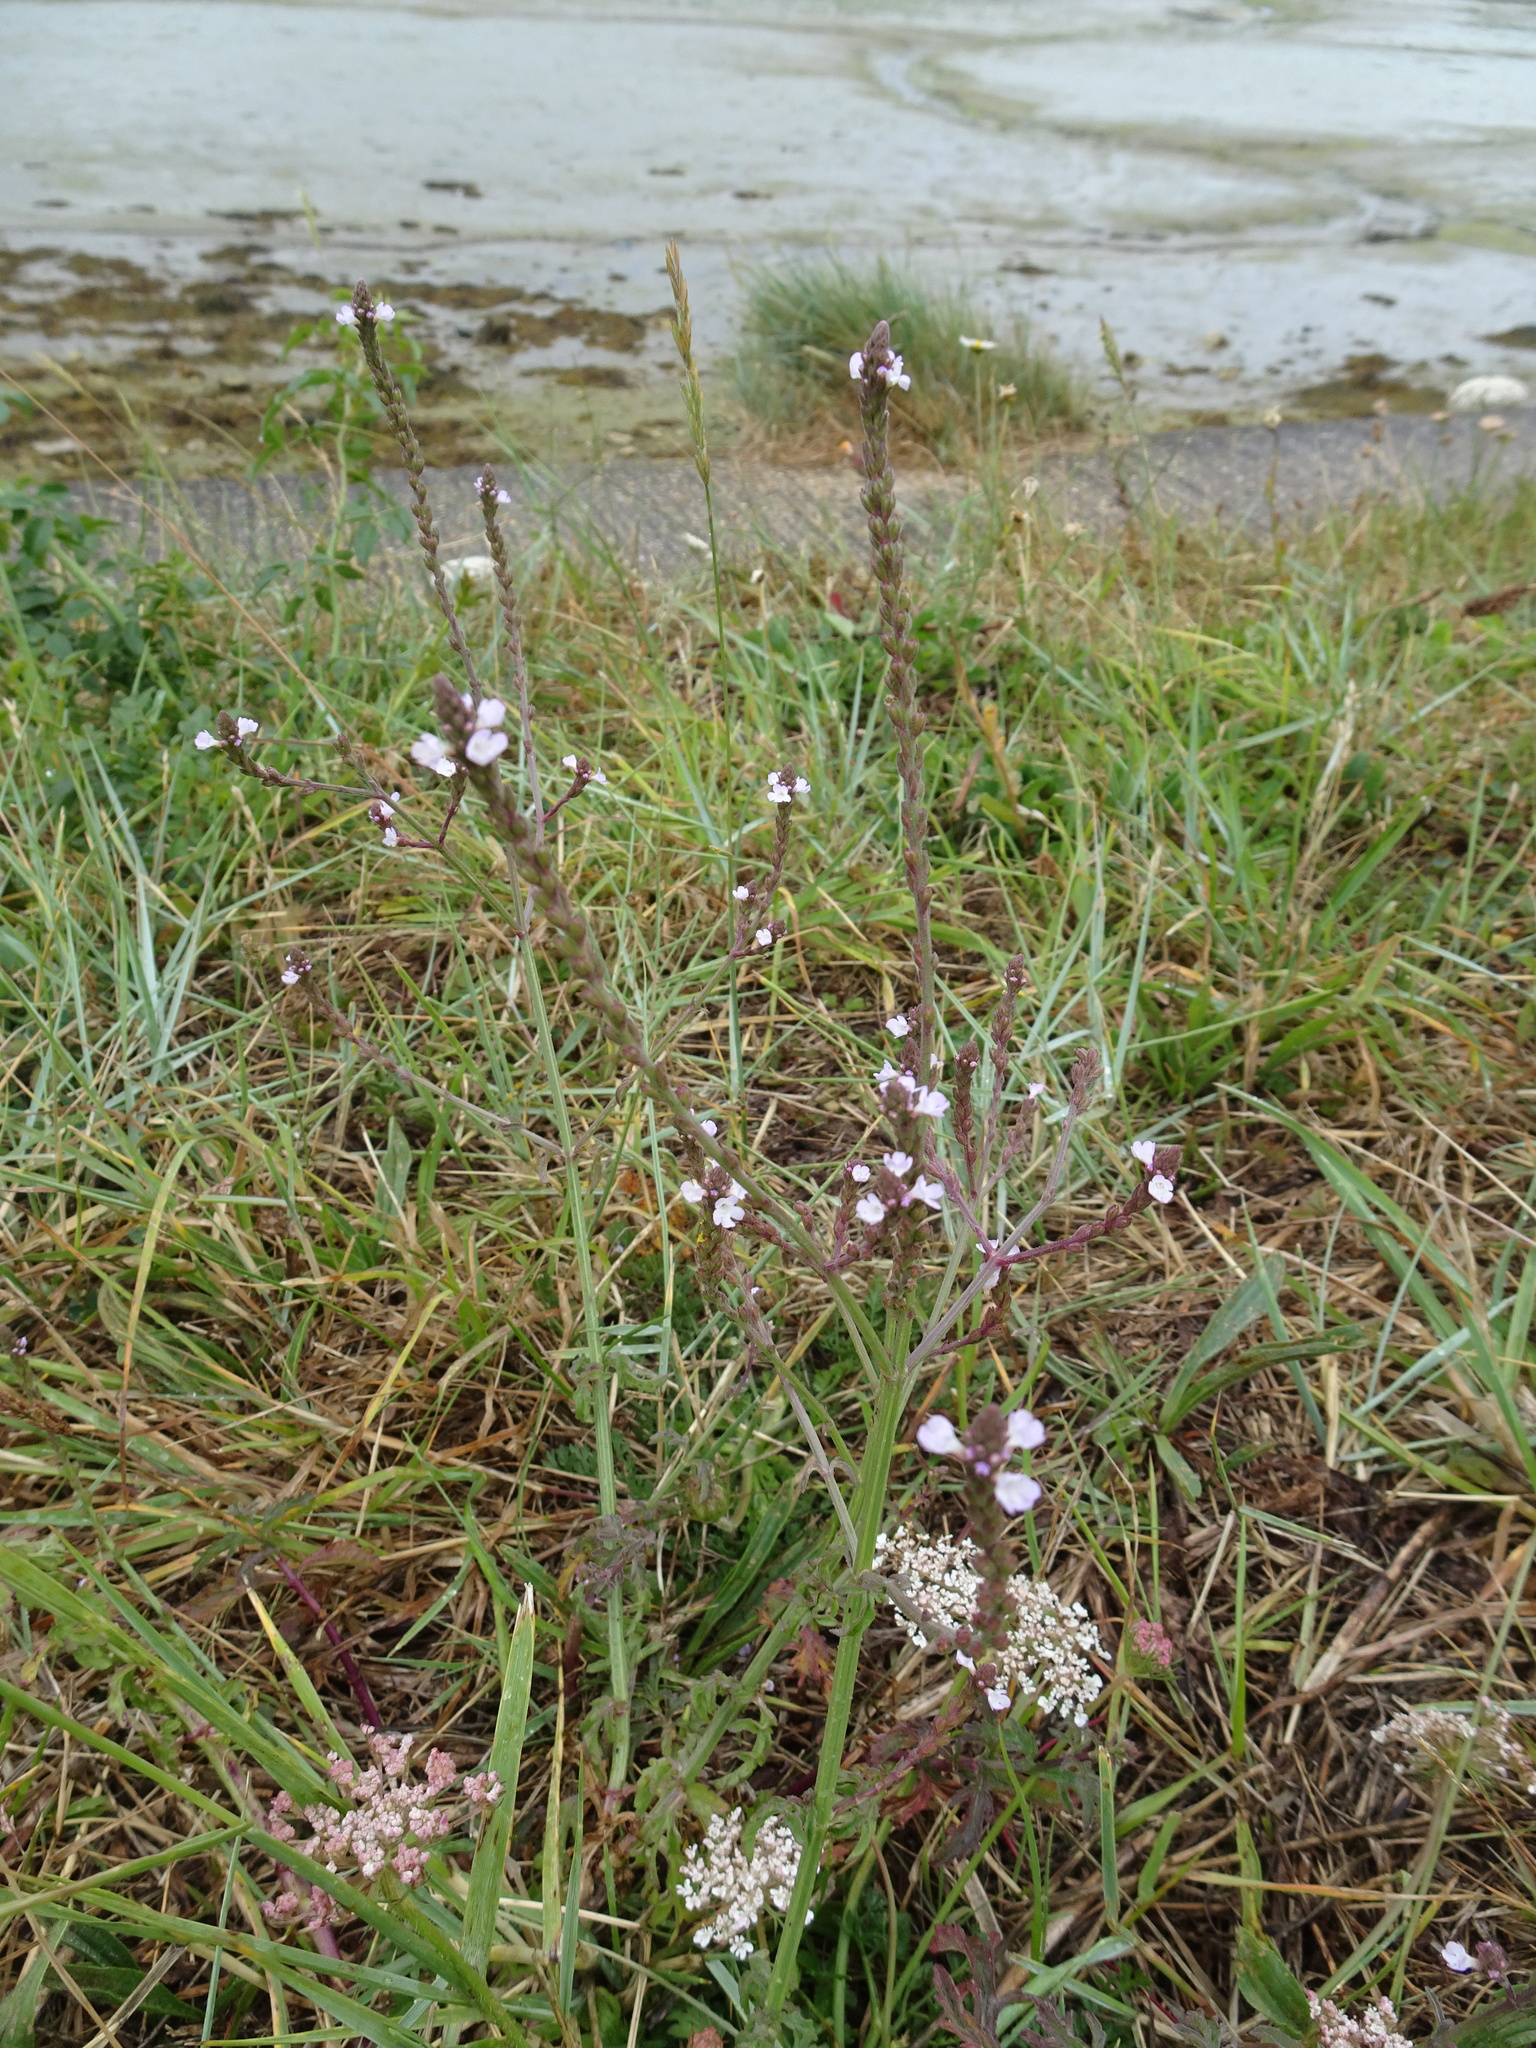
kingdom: Plantae
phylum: Tracheophyta
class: Magnoliopsida
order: Lamiales
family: Verbenaceae
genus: Verbena
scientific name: Verbena officinalis
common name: Vervain
